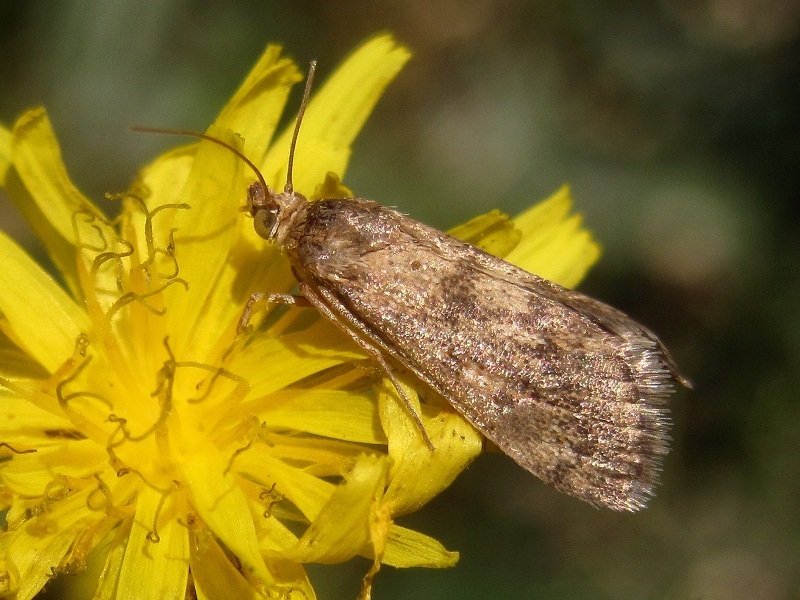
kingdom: Animalia
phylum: Arthropoda
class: Insecta
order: Lepidoptera
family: Crambidae
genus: Tegostoma
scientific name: Tegostoma comparalis
